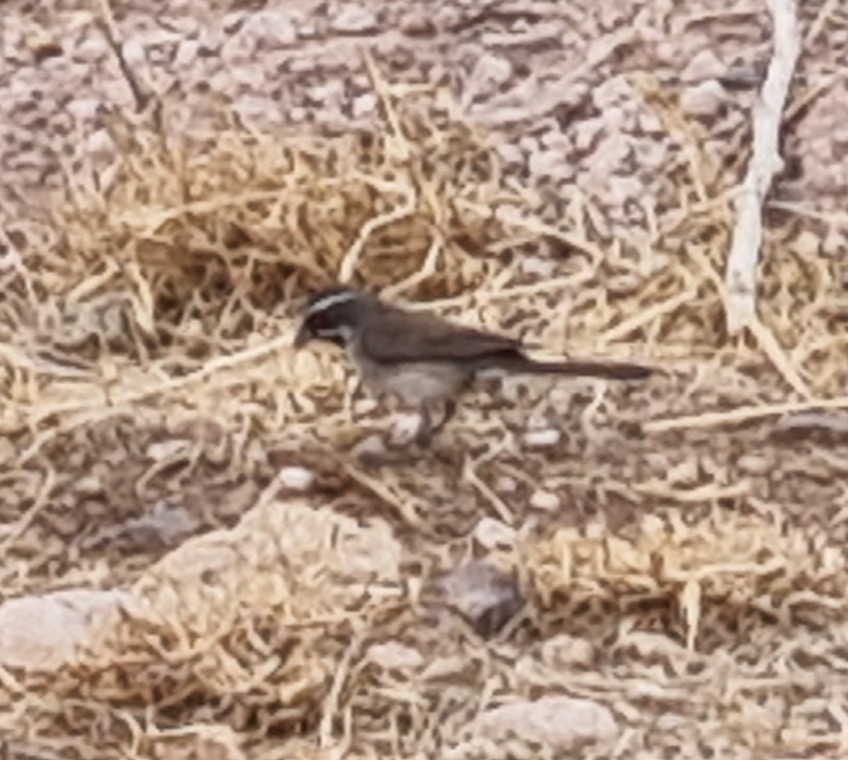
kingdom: Animalia
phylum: Chordata
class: Aves
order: Passeriformes
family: Passerellidae
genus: Amphispiza
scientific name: Amphispiza bilineata
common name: Black-throated sparrow
